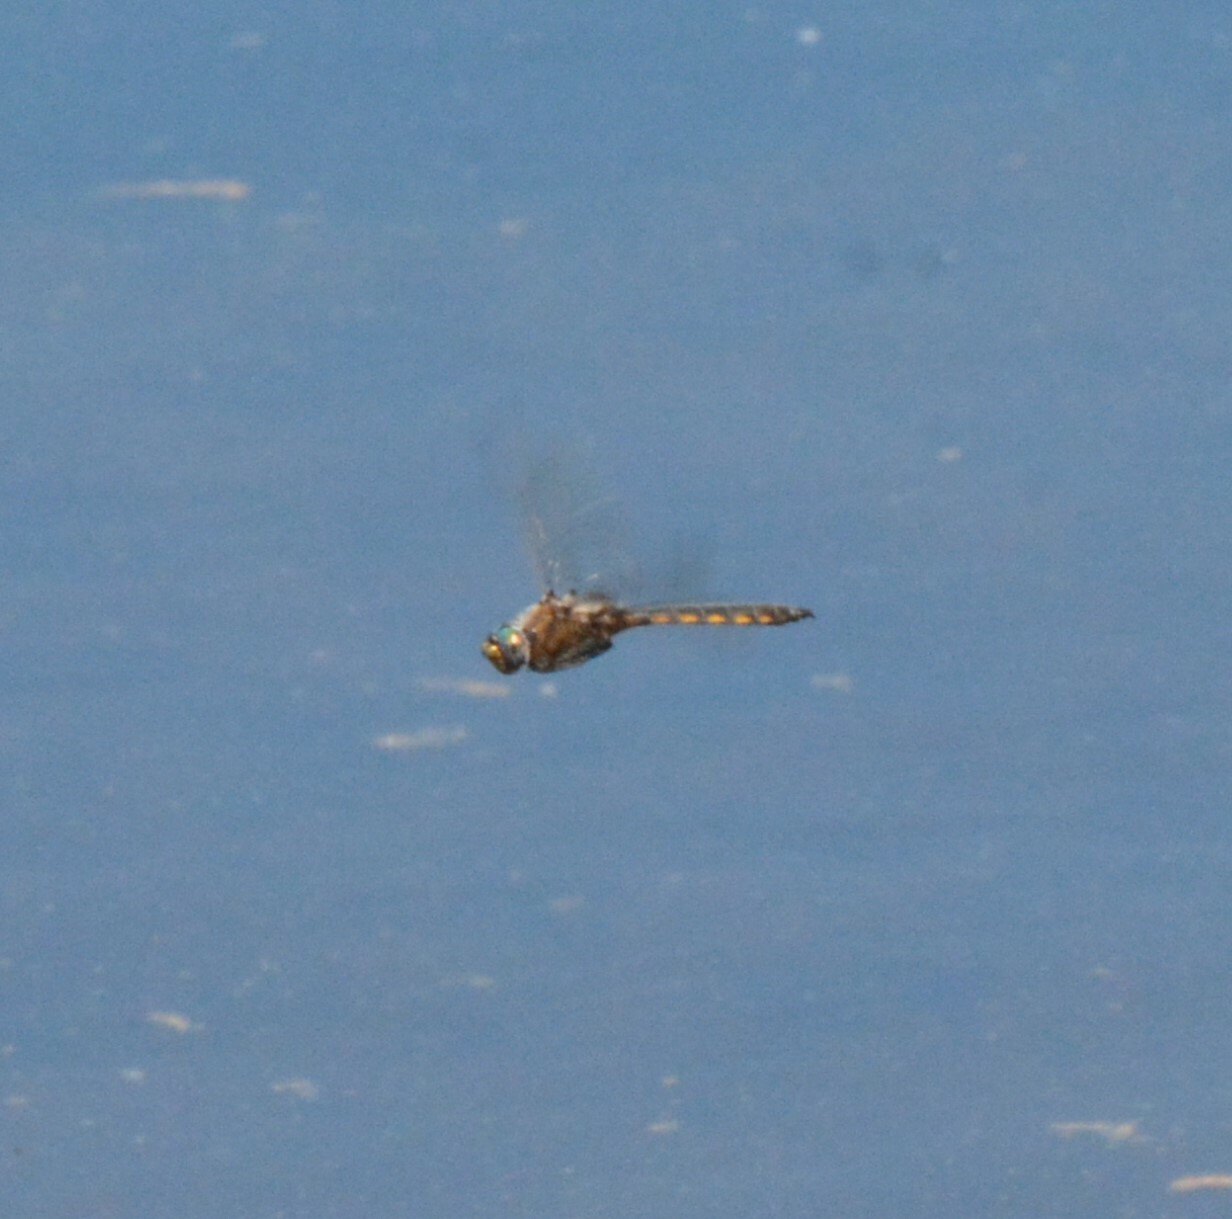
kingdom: Animalia
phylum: Arthropoda
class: Insecta
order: Odonata
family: Corduliidae
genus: Epitheca
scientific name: Epitheca canis
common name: Beaverpond baskettail
